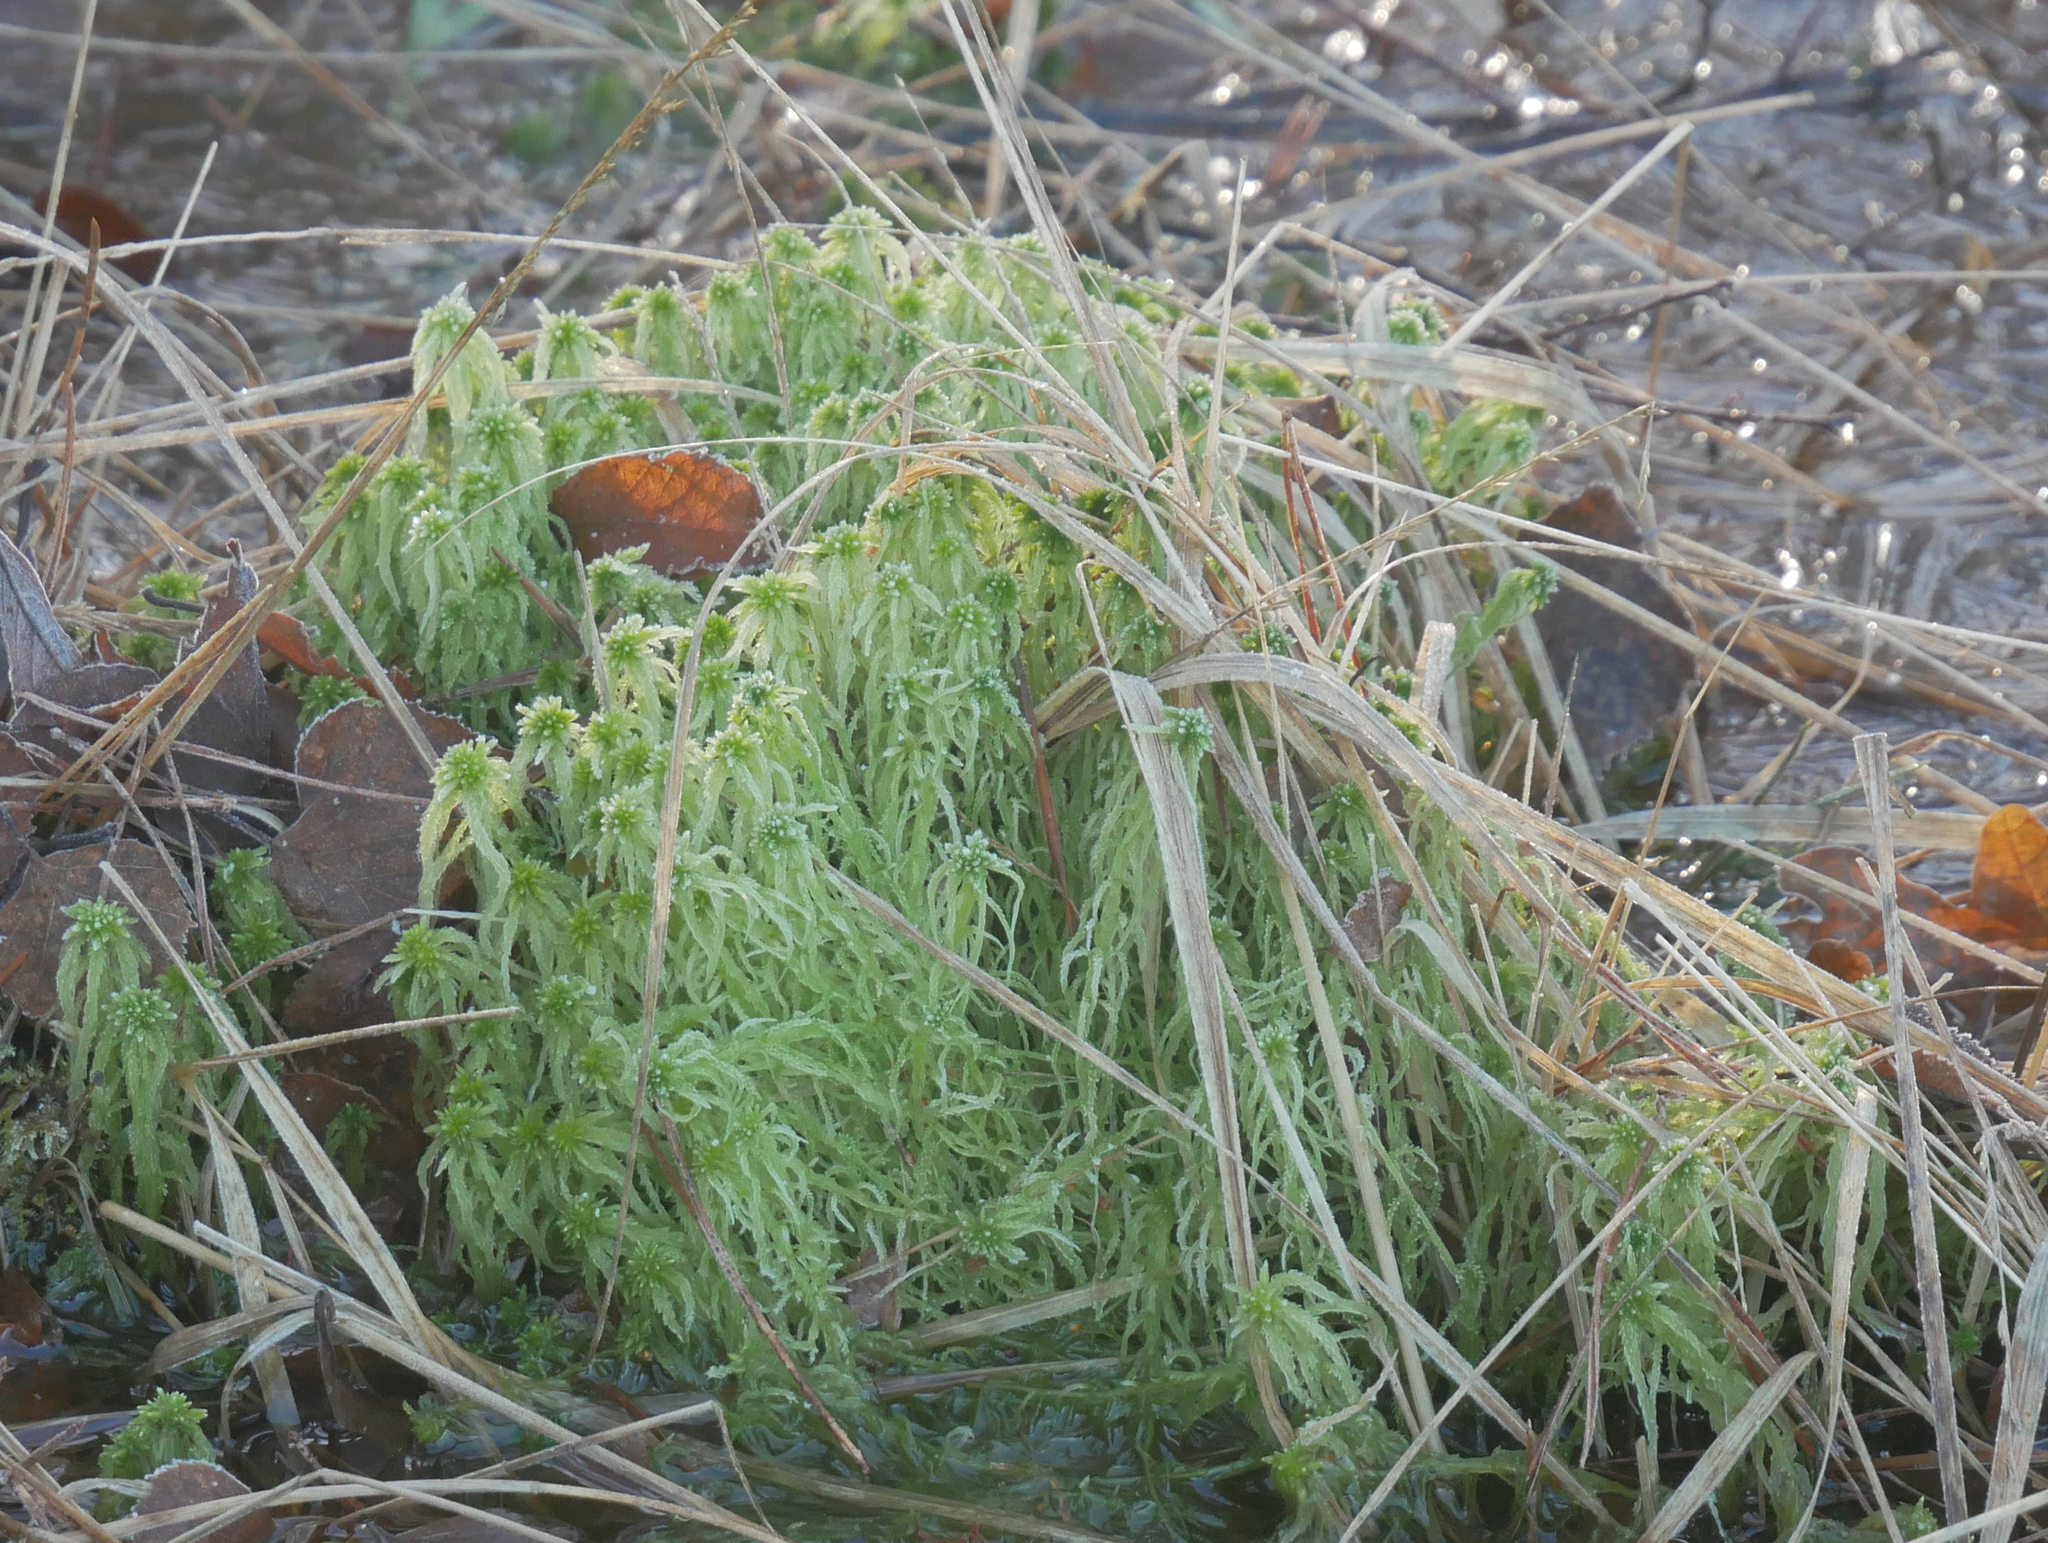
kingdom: Plantae
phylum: Bryophyta
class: Sphagnopsida
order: Sphagnales
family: Sphagnaceae
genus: Sphagnum
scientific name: Sphagnum fimbriatum
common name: Fringed peat moss
